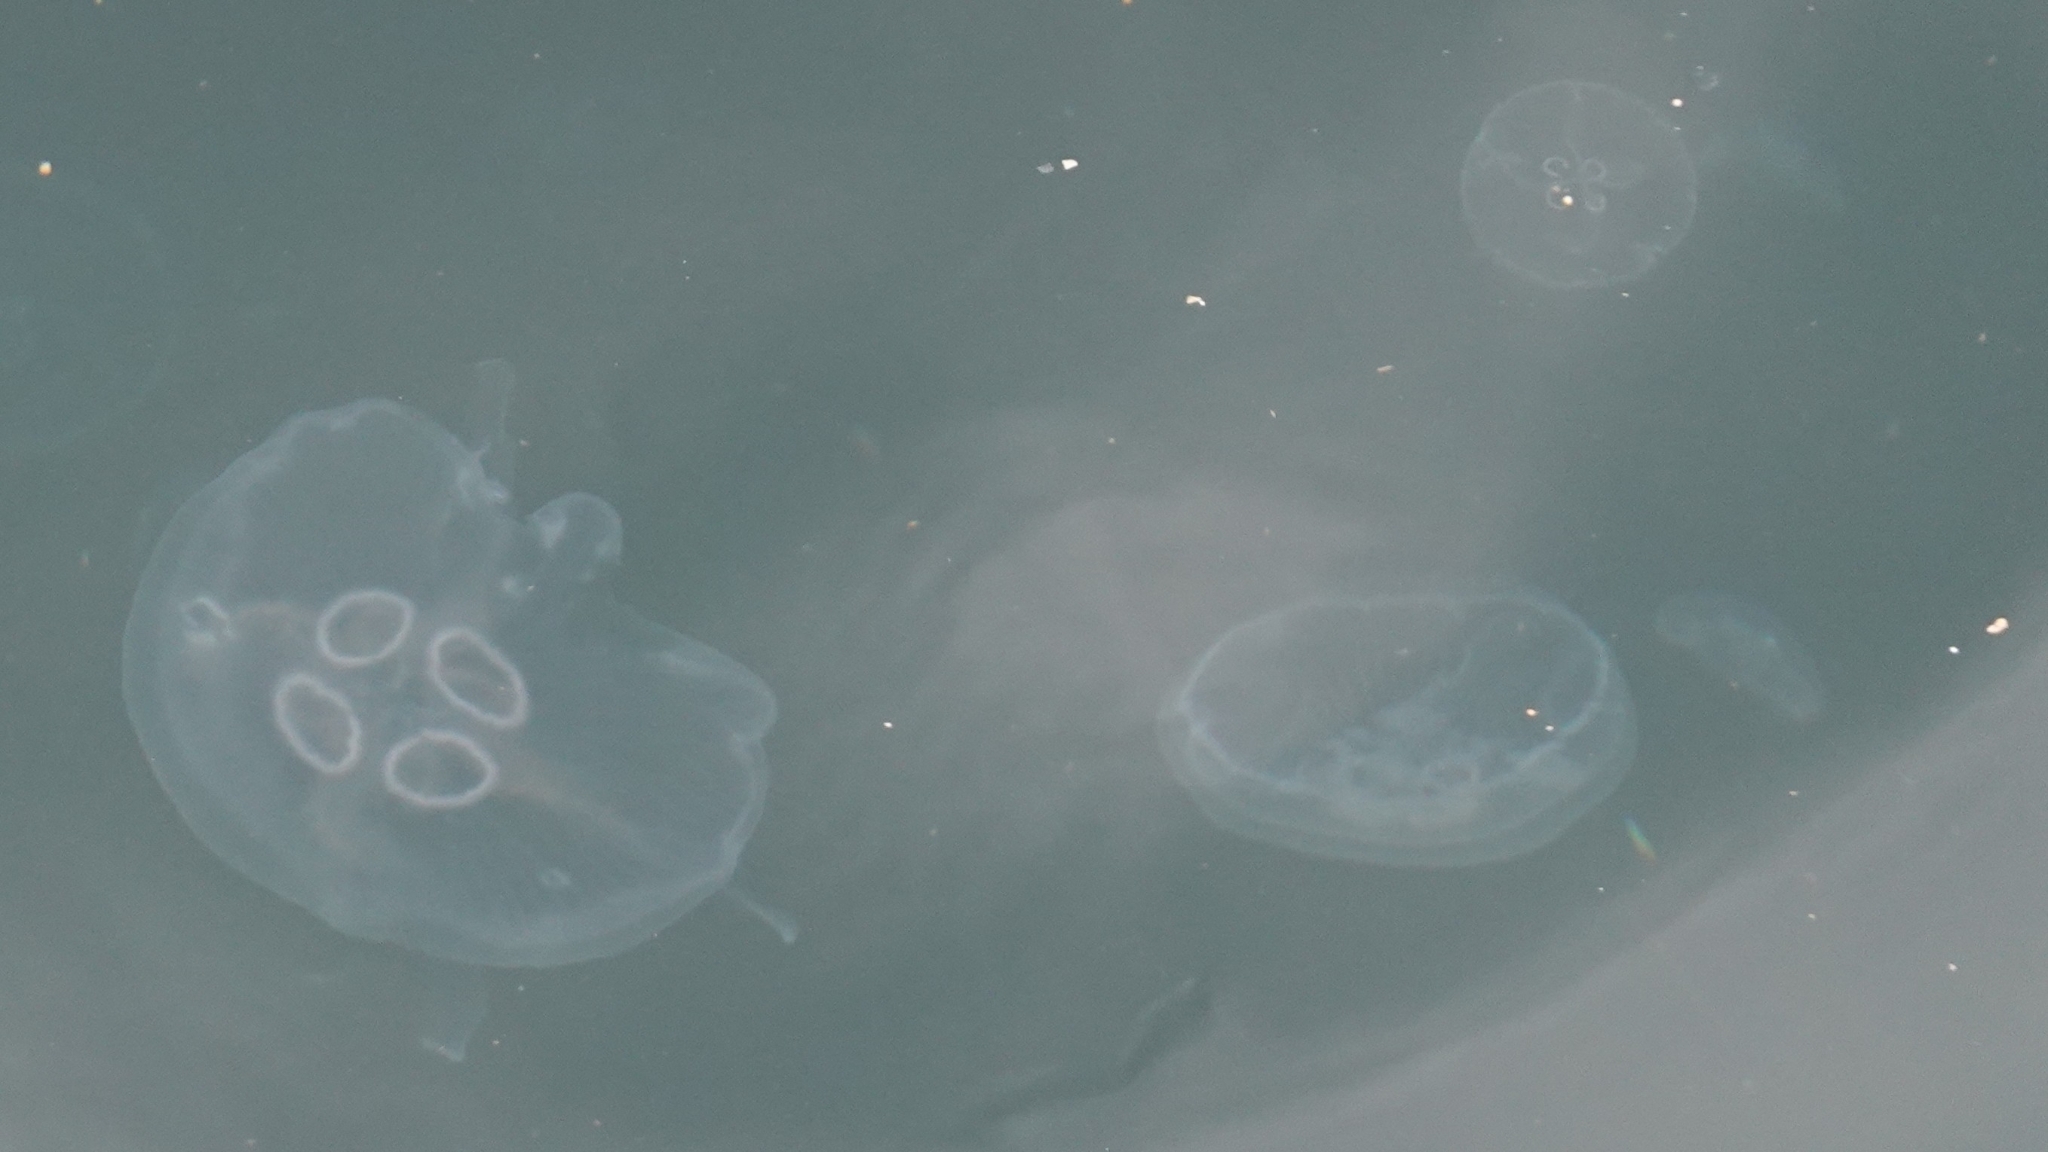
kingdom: Animalia
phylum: Cnidaria
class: Scyphozoa
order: Semaeostomeae
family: Ulmaridae
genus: Aurelia
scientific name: Aurelia aurita
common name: Moon jellyfish
